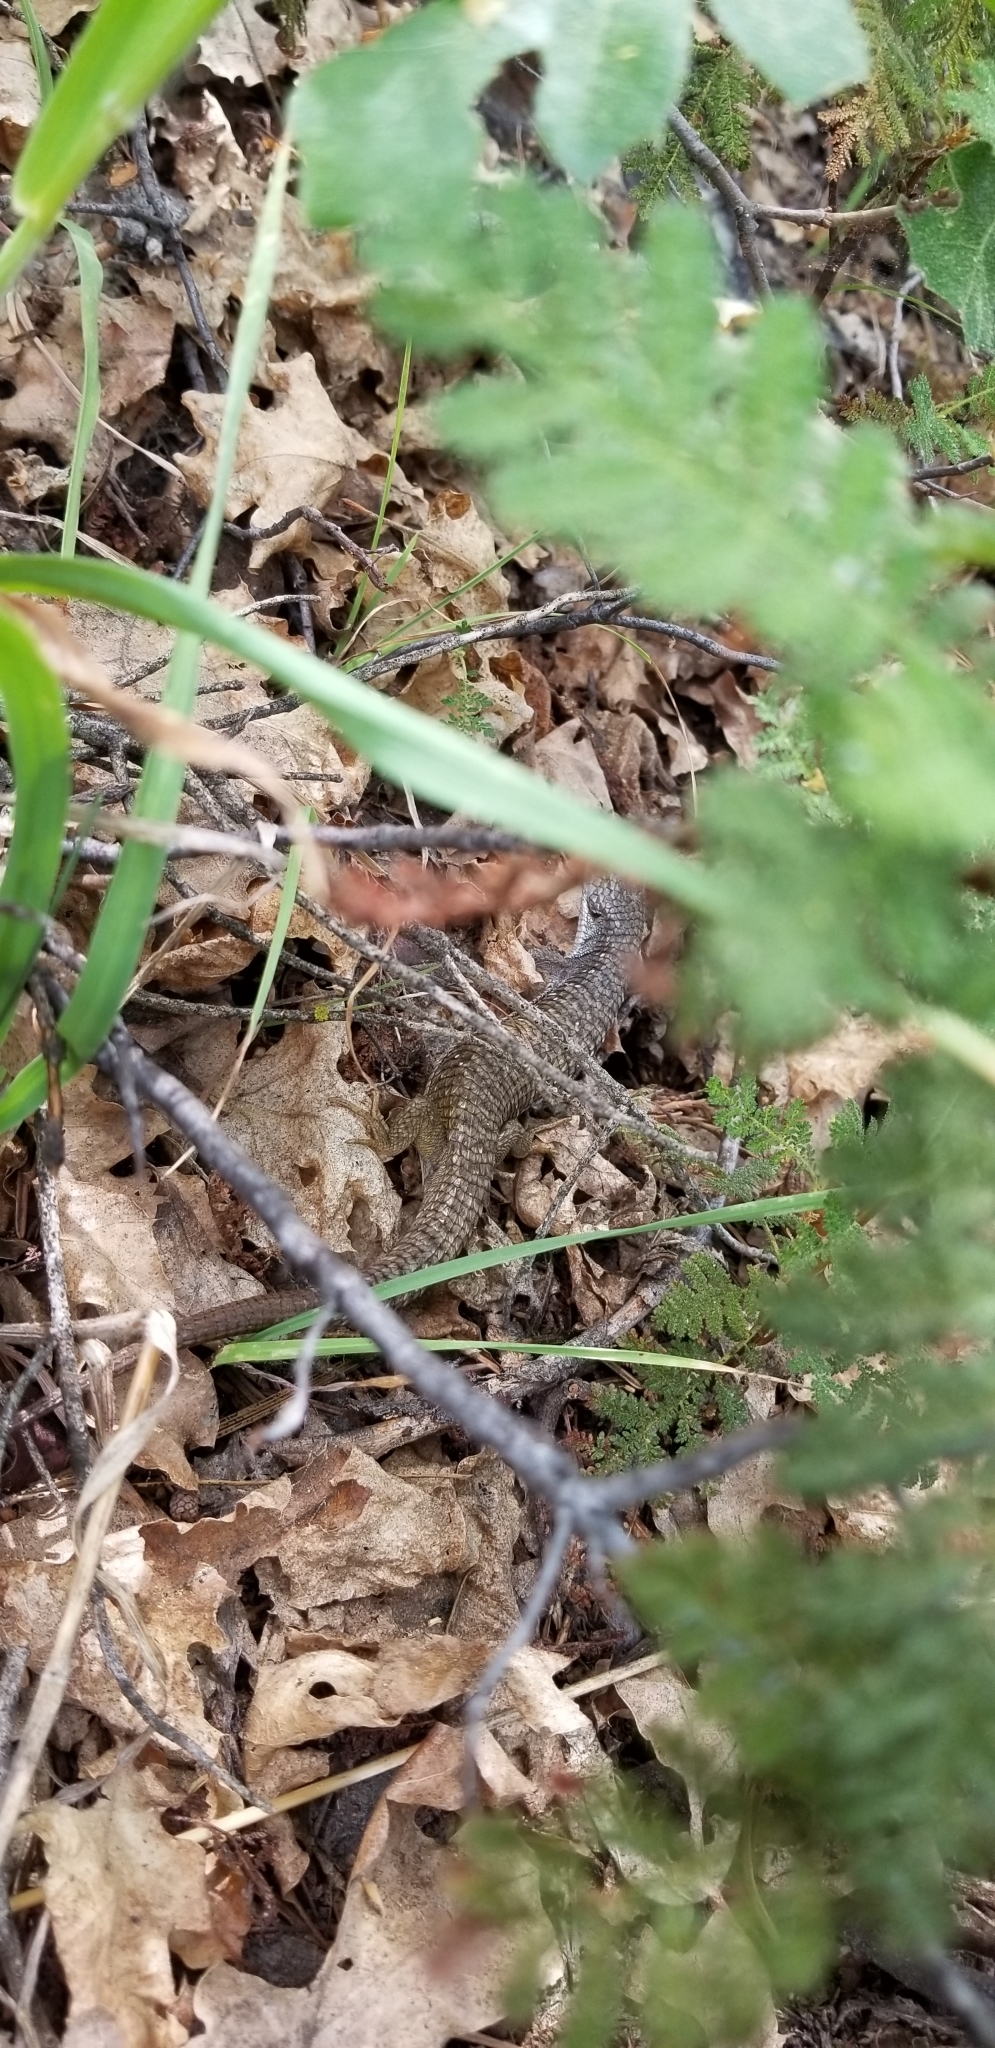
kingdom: Animalia
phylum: Chordata
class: Squamata
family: Anguidae
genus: Elgaria
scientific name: Elgaria coerulea
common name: Northern alligator lizard
